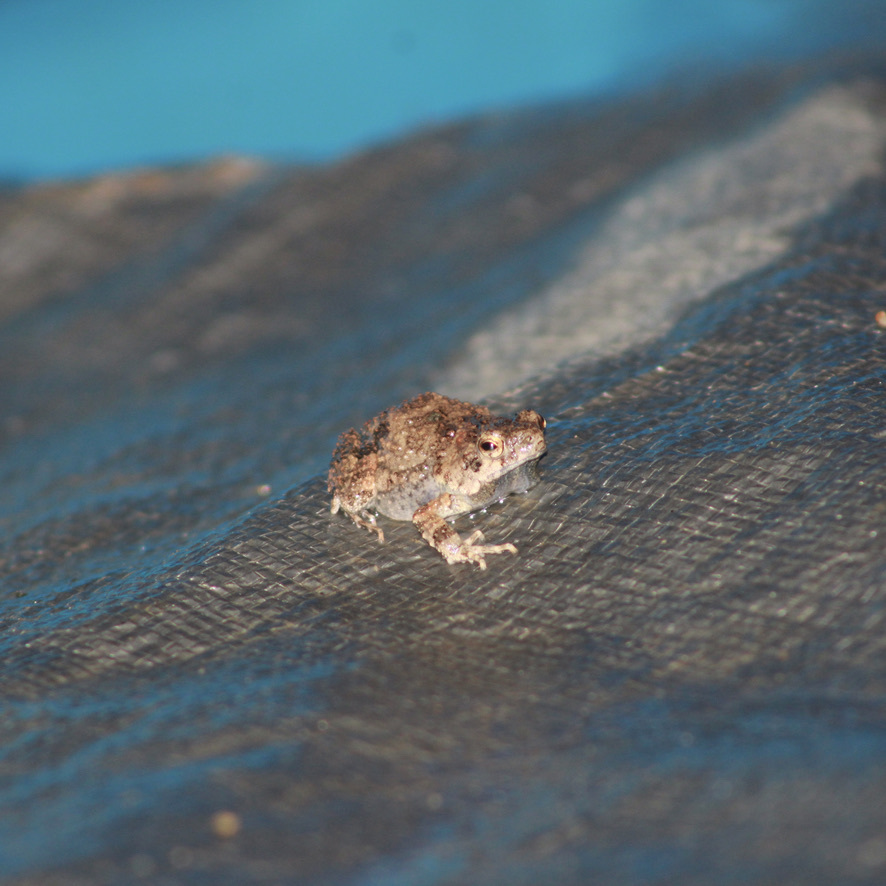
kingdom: Animalia
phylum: Chordata
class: Amphibia
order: Anura
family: Leptodactylidae
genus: Engystomops
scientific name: Engystomops pustulosus
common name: Tungara frog
